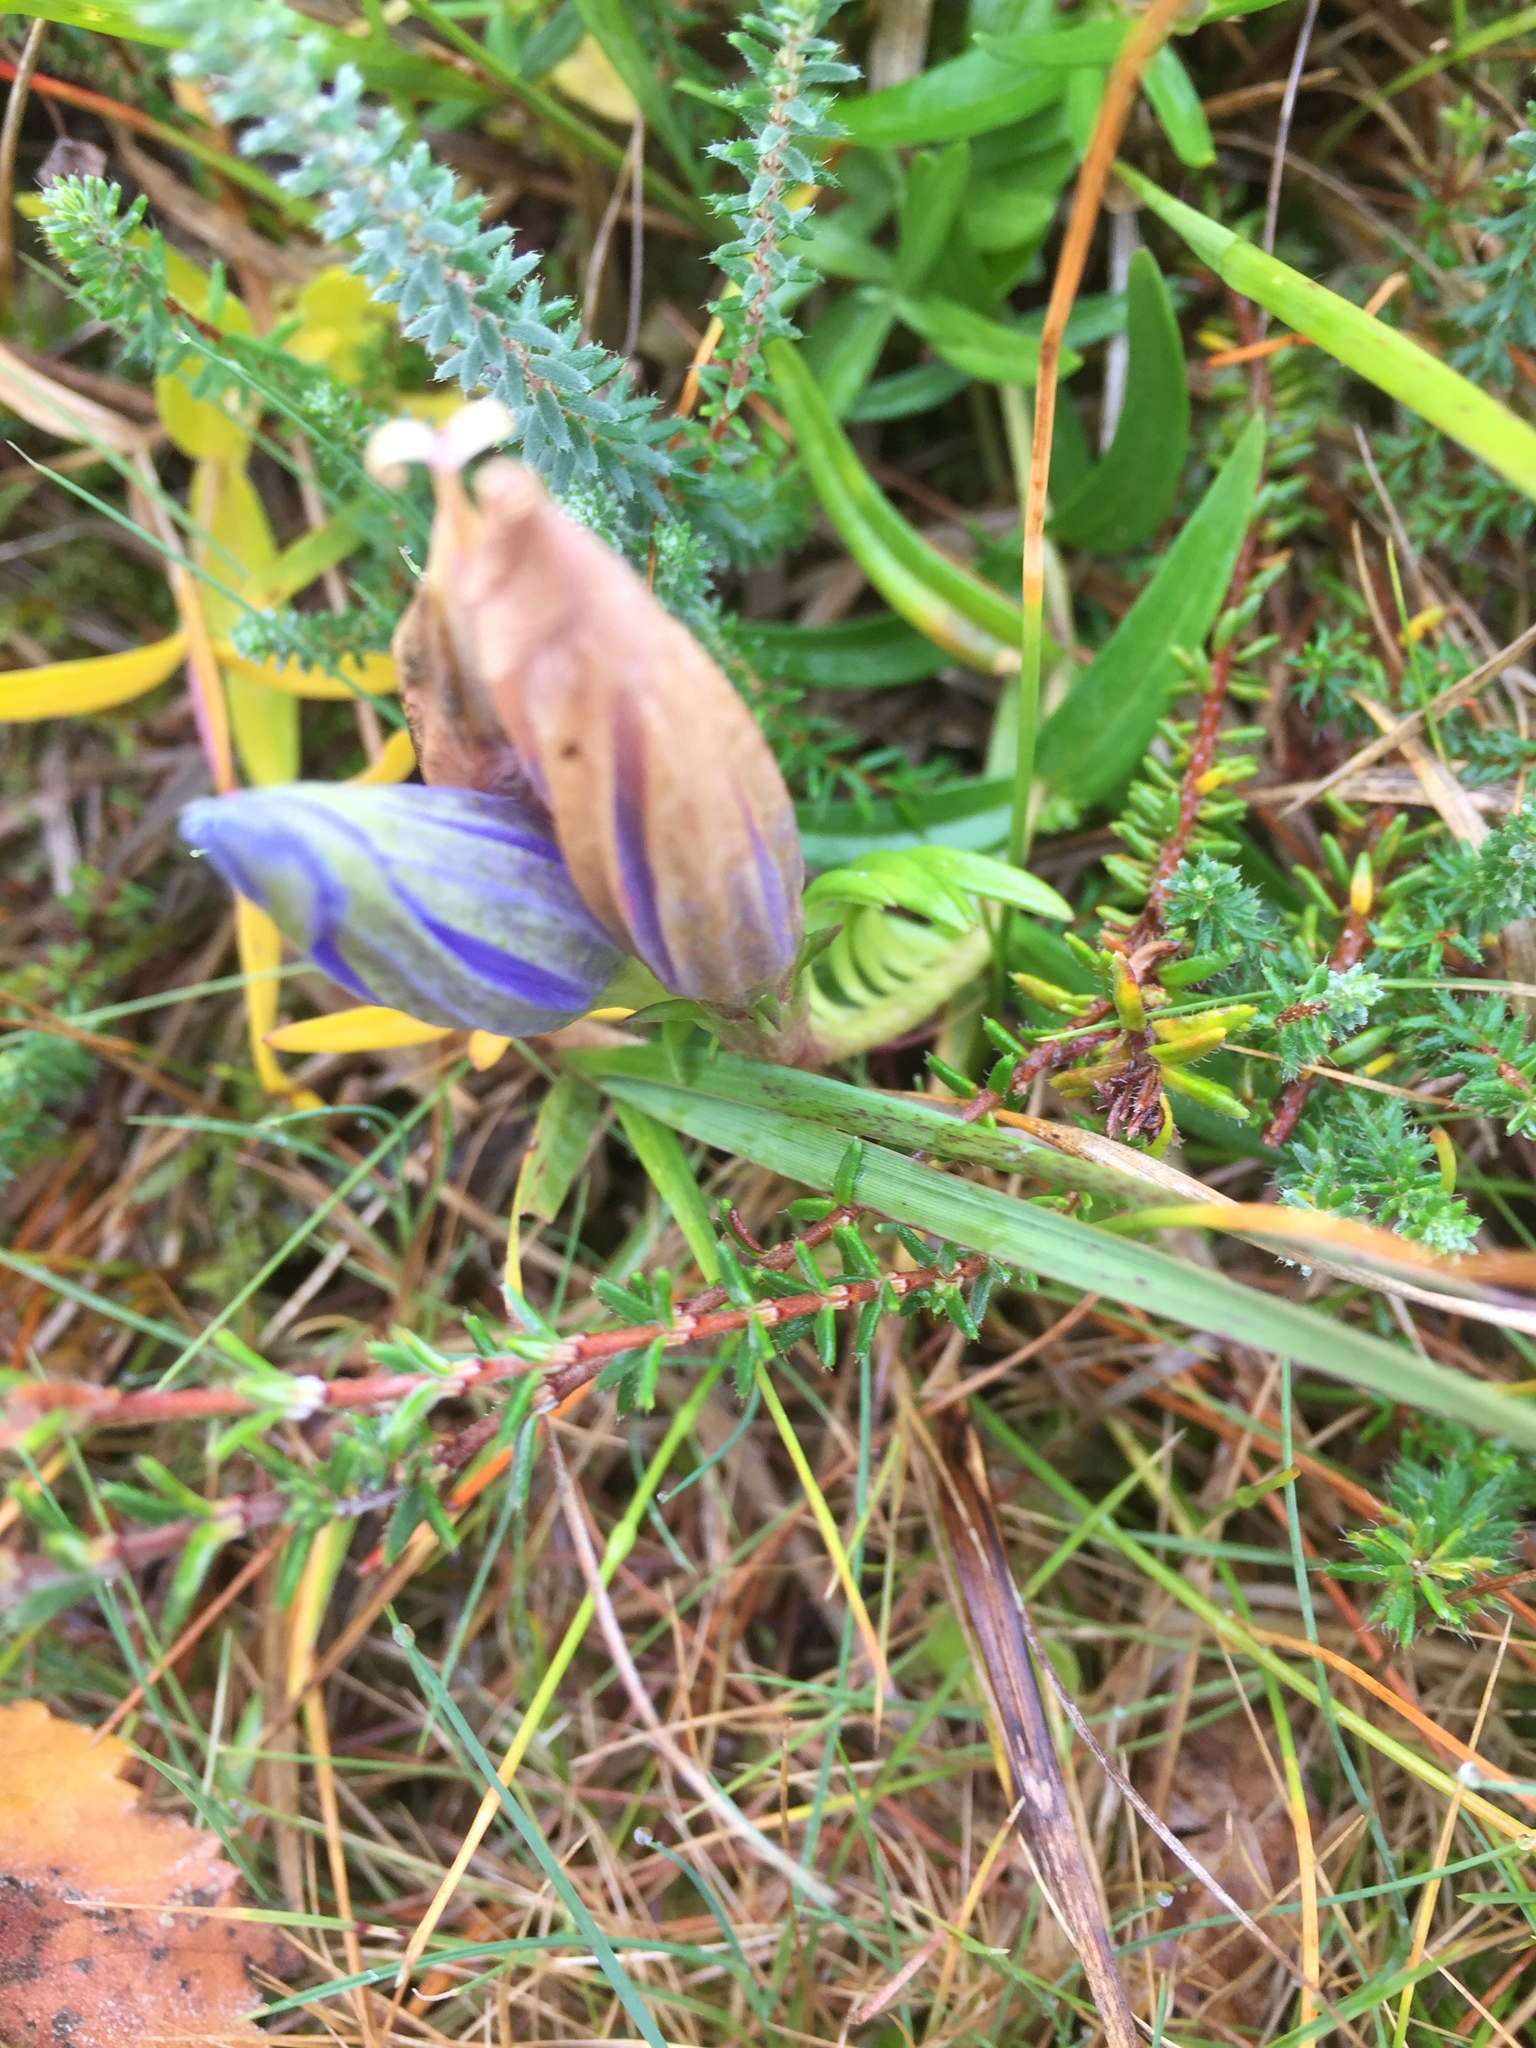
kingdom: Plantae
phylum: Tracheophyta
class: Magnoliopsida
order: Gentianales
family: Gentianaceae
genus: Gentiana
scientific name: Gentiana pneumonanthe
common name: Marsh gentian
